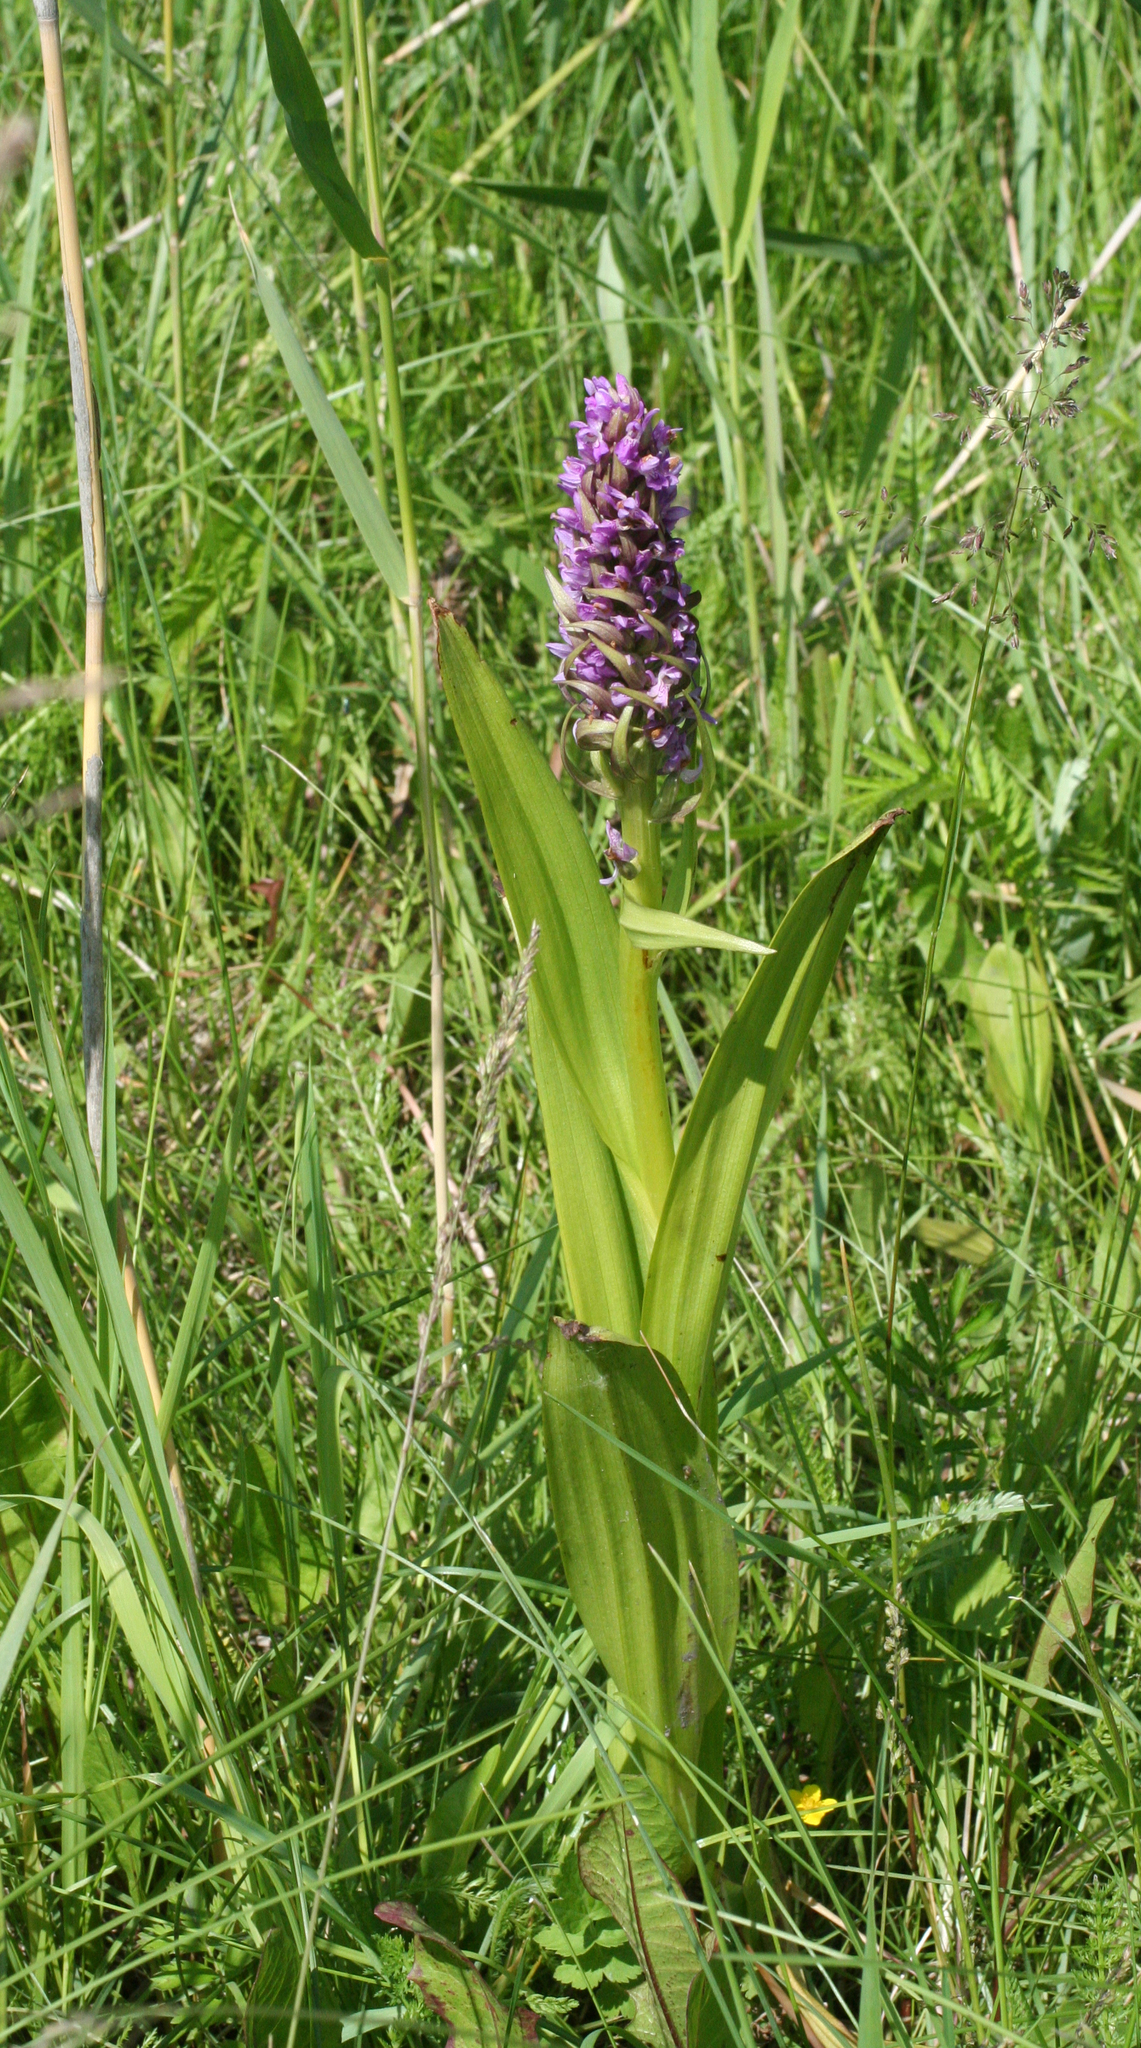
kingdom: Plantae
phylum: Tracheophyta
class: Liliopsida
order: Asparagales
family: Orchidaceae
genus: Dactylorhiza
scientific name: Dactylorhiza incarnata
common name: Early marsh-orchid
